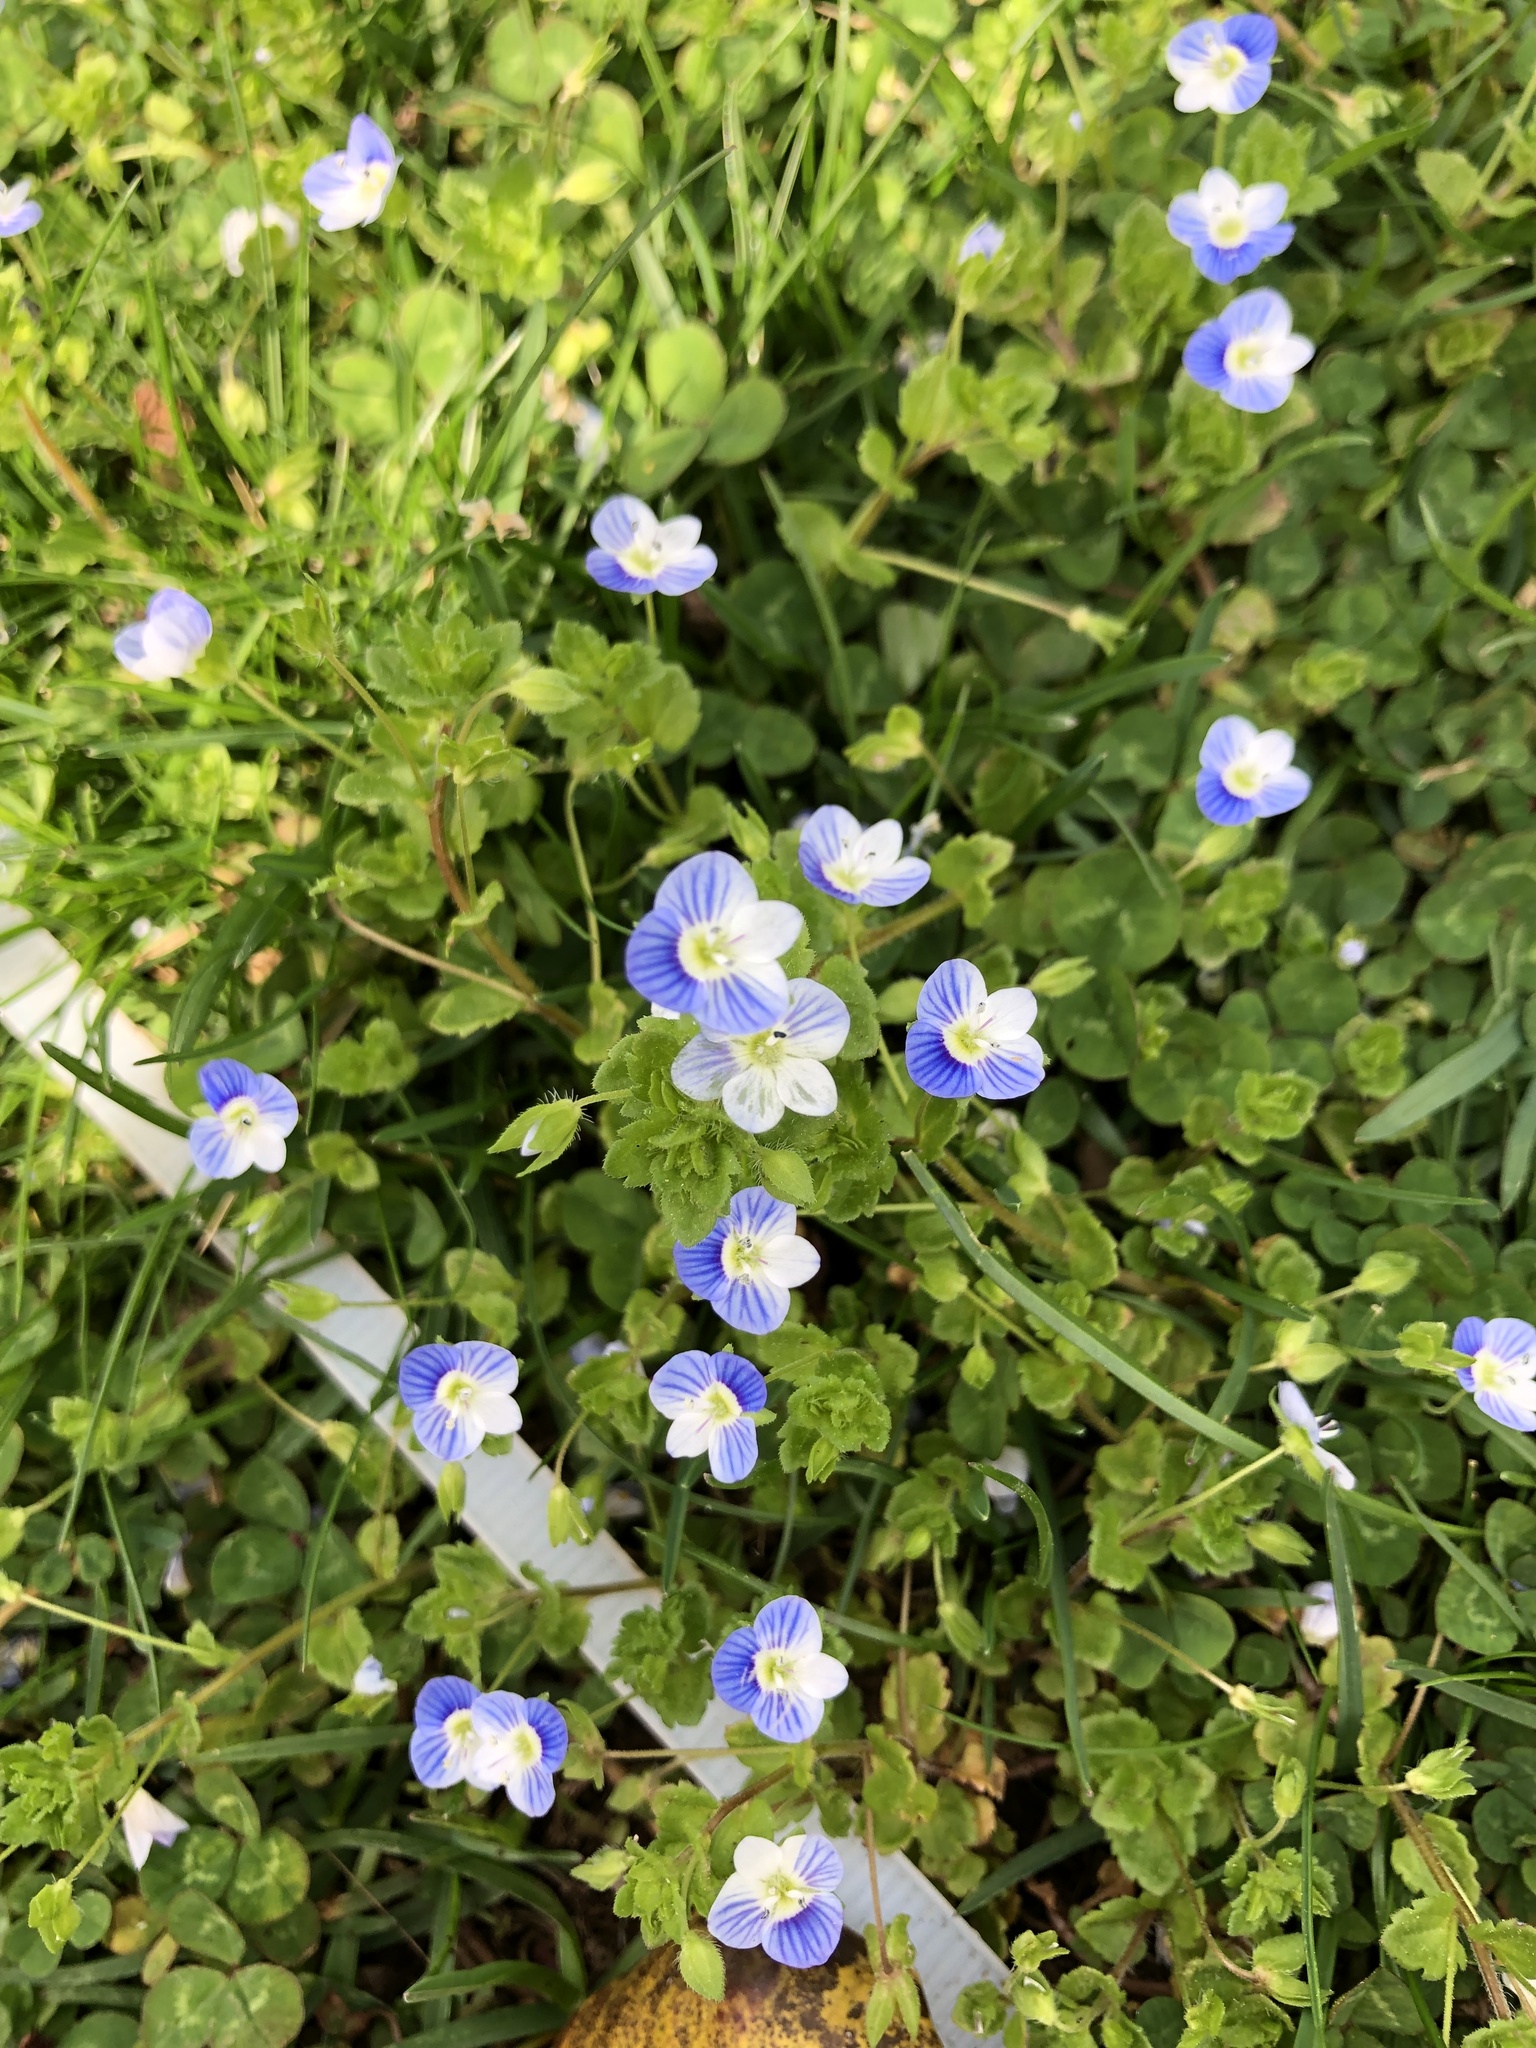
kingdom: Plantae
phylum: Tracheophyta
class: Magnoliopsida
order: Lamiales
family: Plantaginaceae
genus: Veronica
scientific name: Veronica persica
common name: Common field-speedwell
